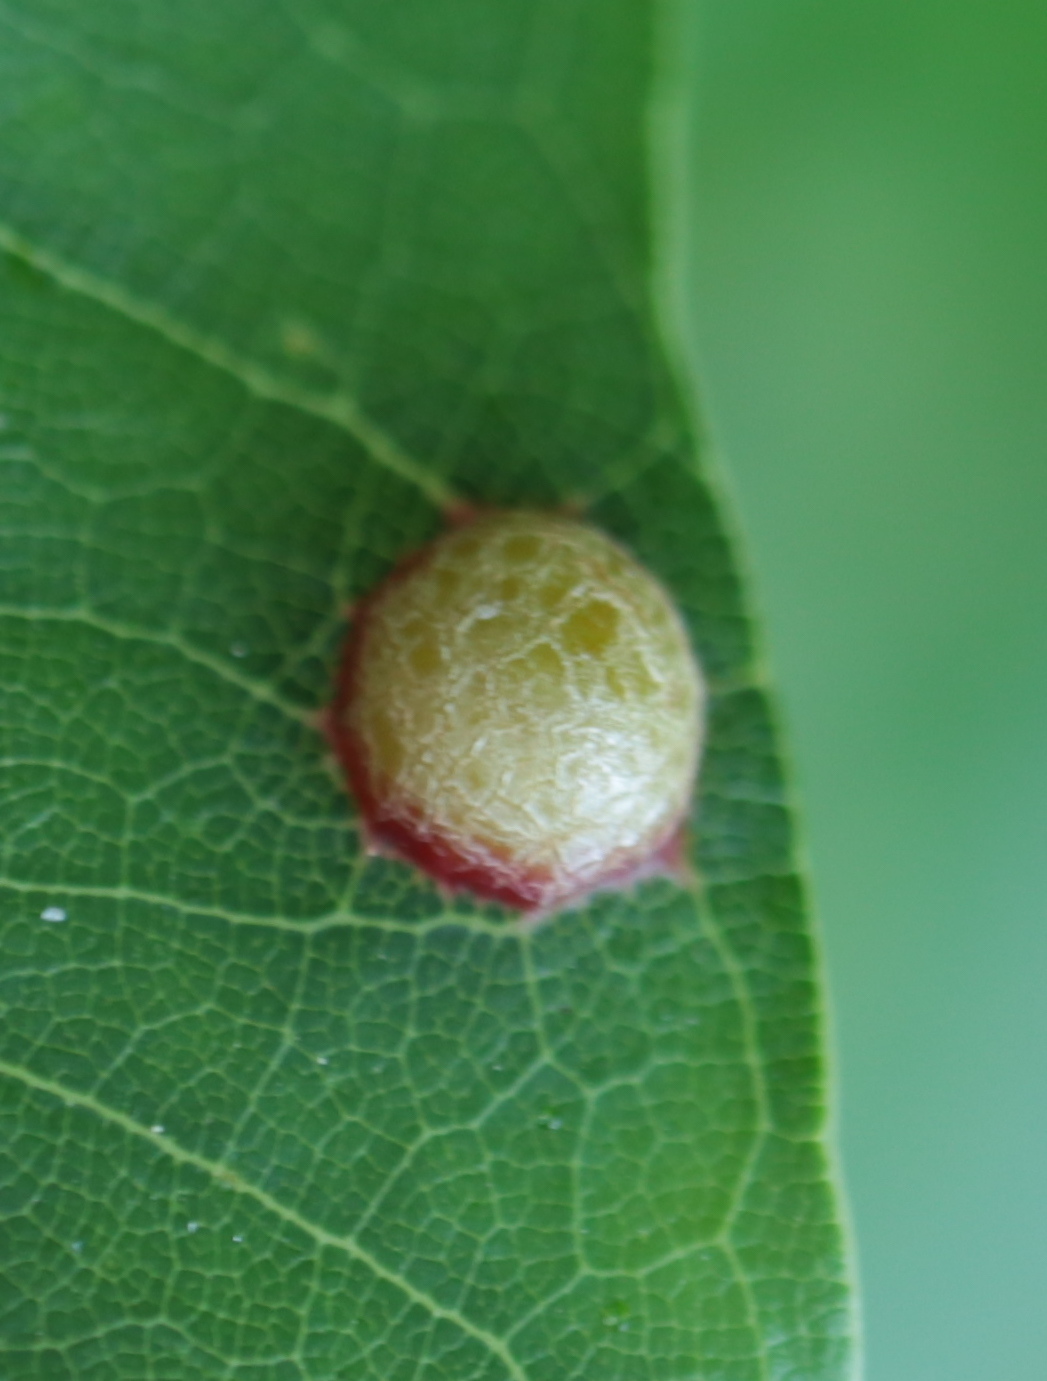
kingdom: Animalia
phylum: Arthropoda
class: Insecta
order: Diptera
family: Cecidomyiidae
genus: Polystepha
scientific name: Polystepha pilulae
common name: Oak leaf gall midge
